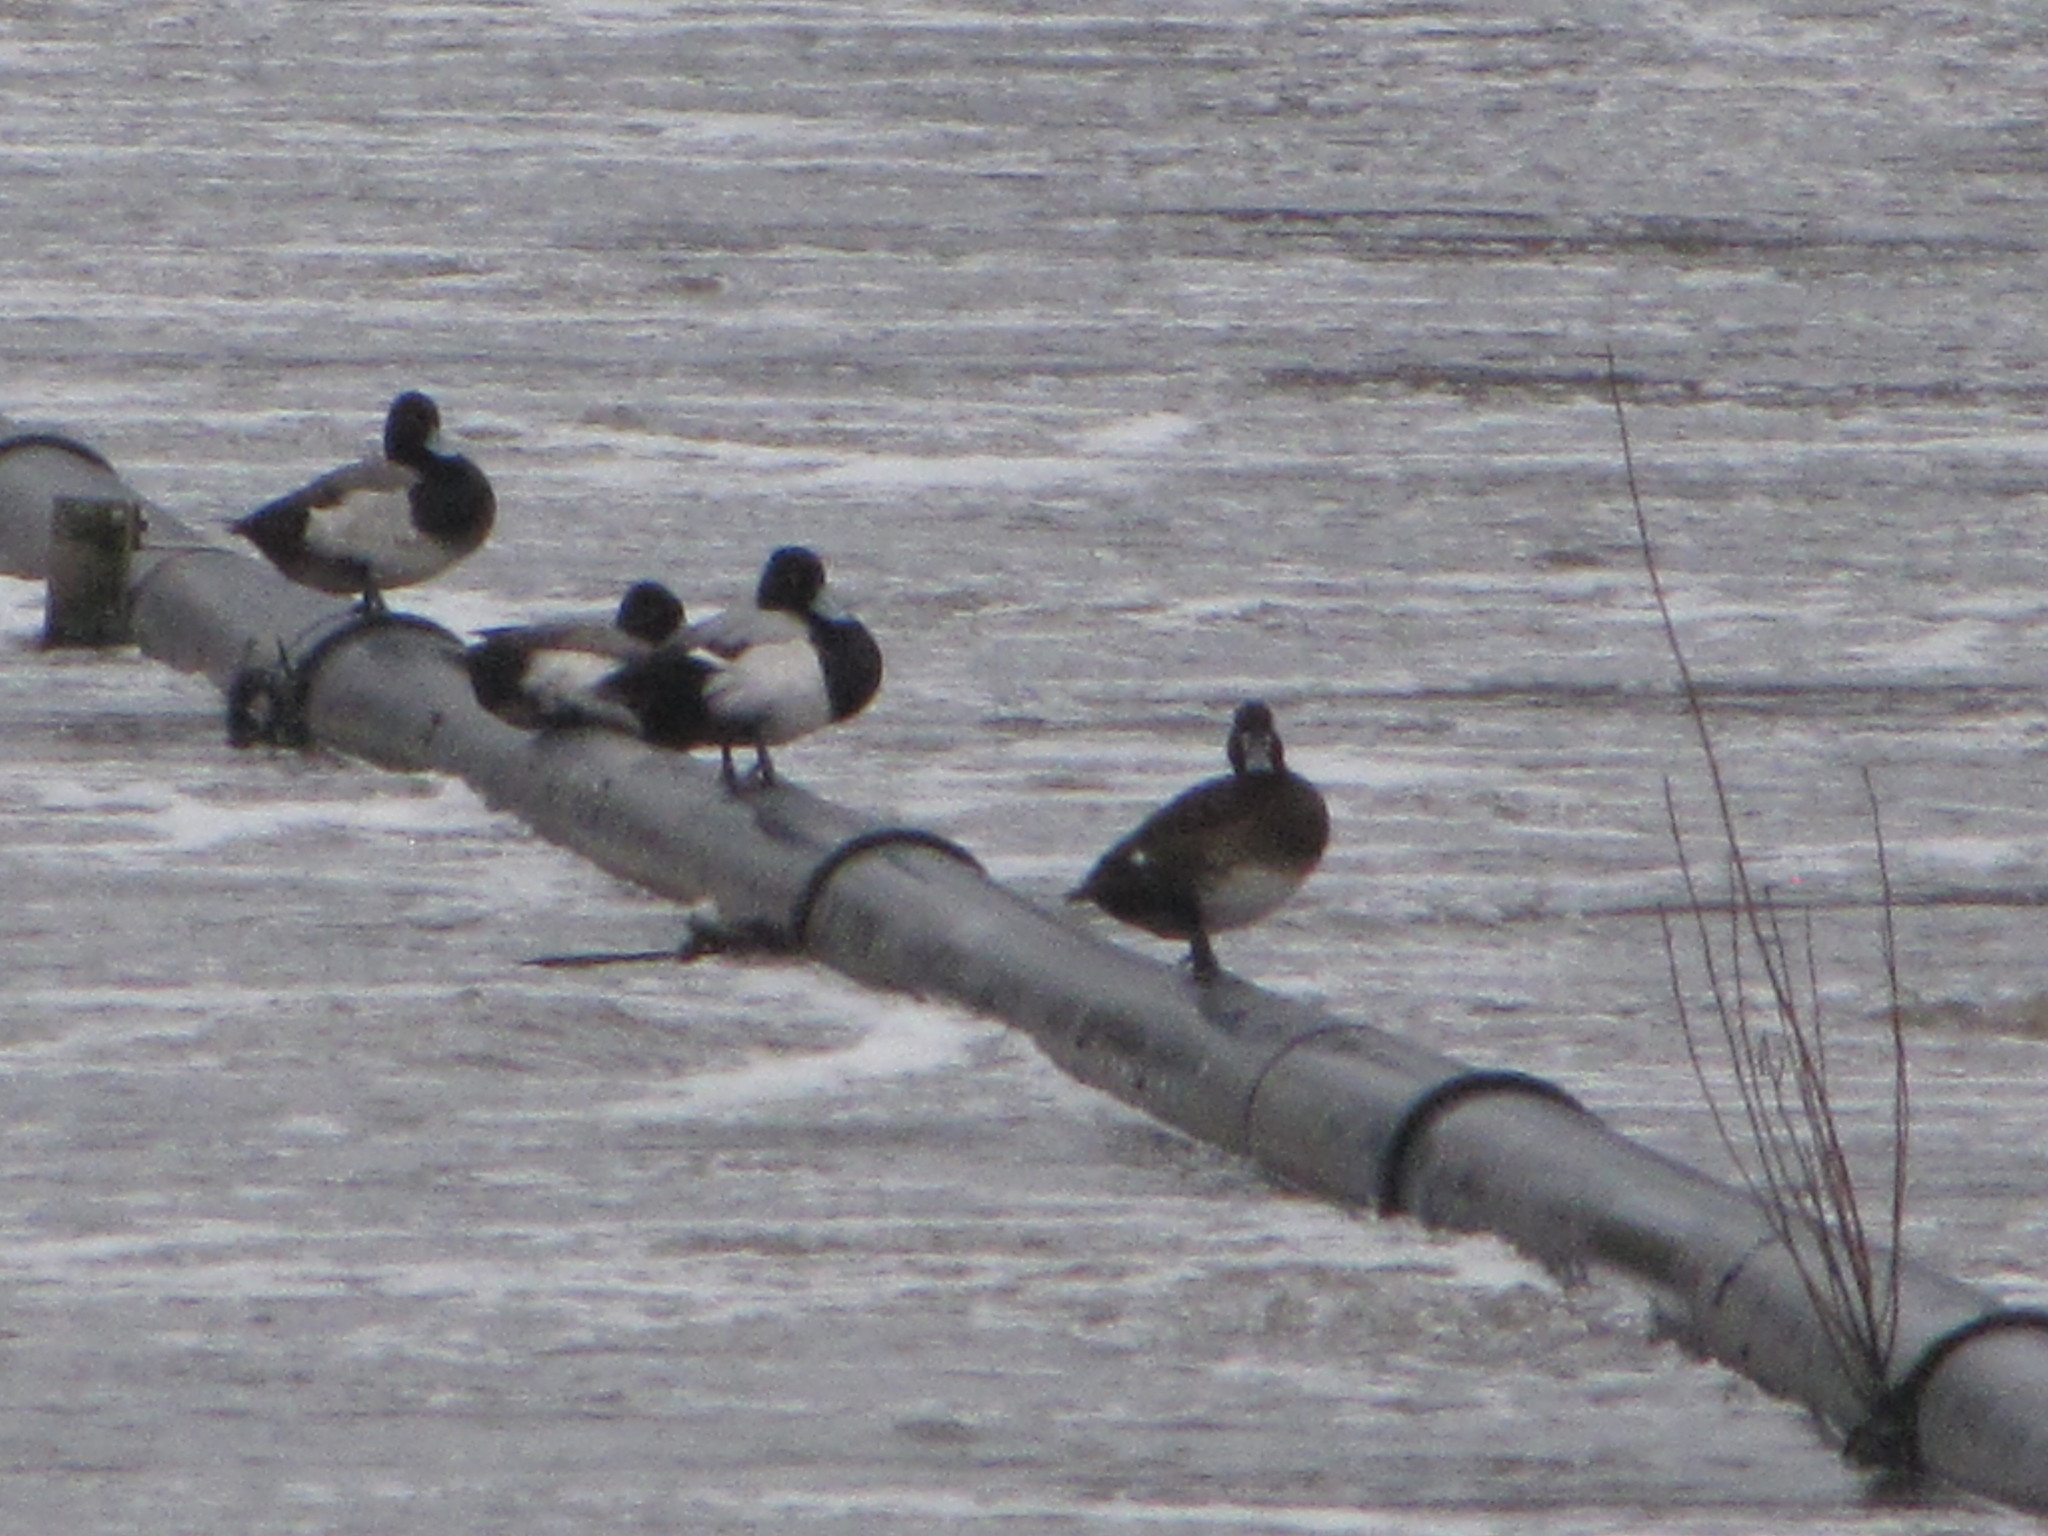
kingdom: Animalia
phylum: Chordata
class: Aves
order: Anseriformes
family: Anatidae
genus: Aythya
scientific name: Aythya affinis
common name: Lesser scaup
